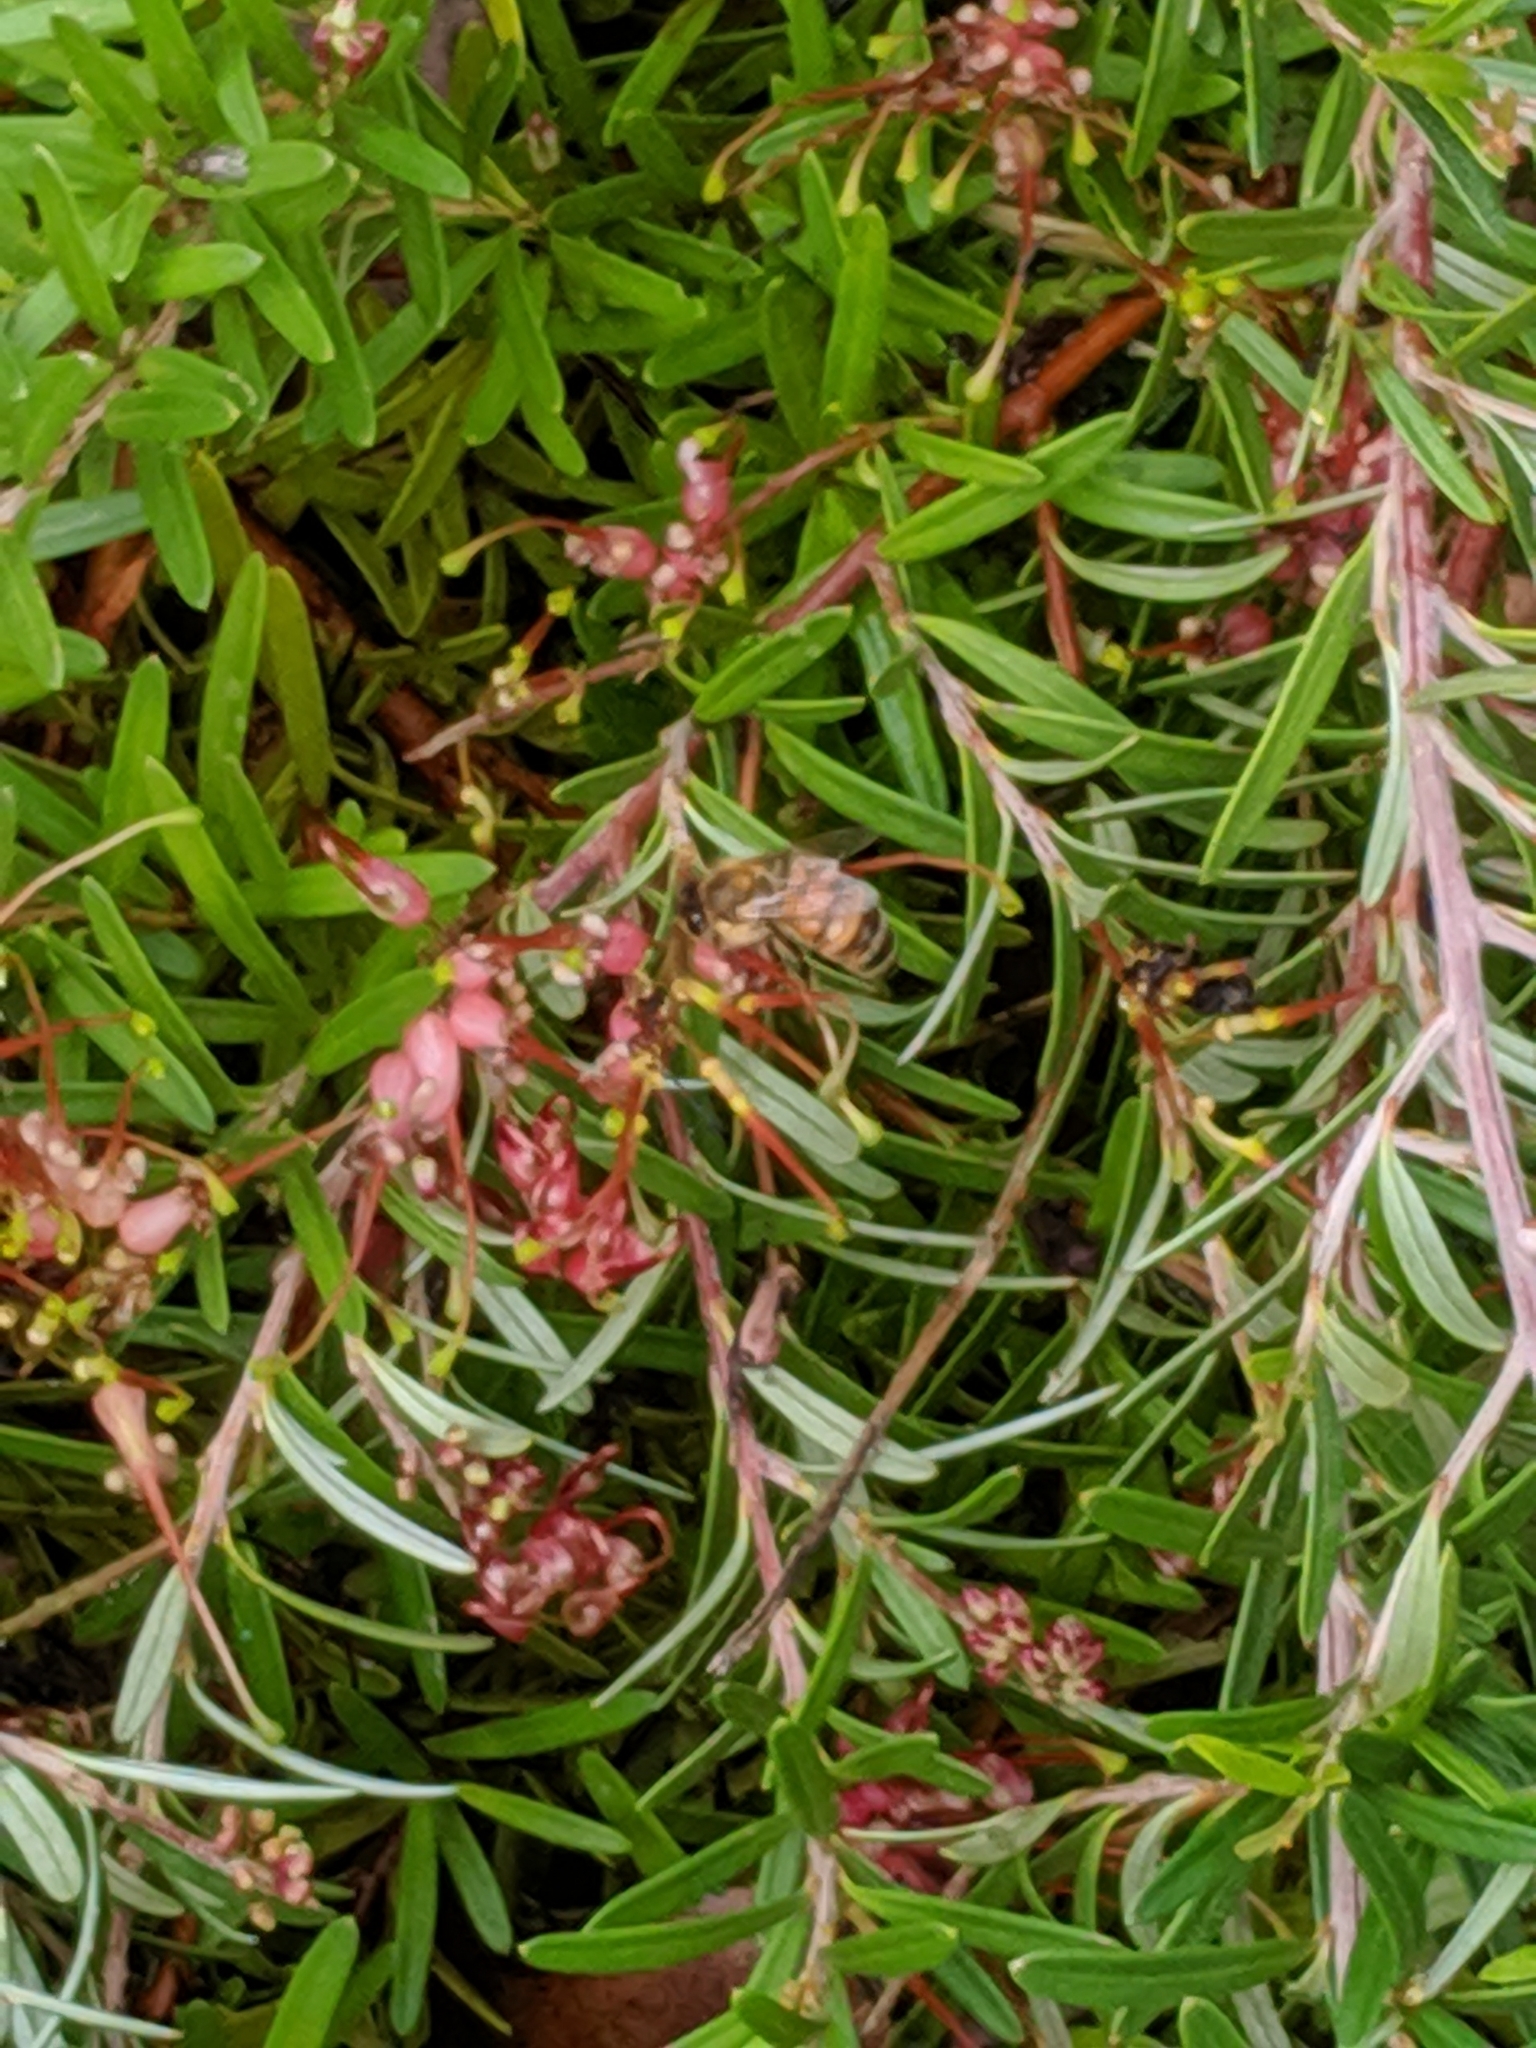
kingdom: Animalia
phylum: Arthropoda
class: Insecta
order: Hymenoptera
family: Apidae
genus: Apis
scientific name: Apis mellifera
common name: Honey bee
